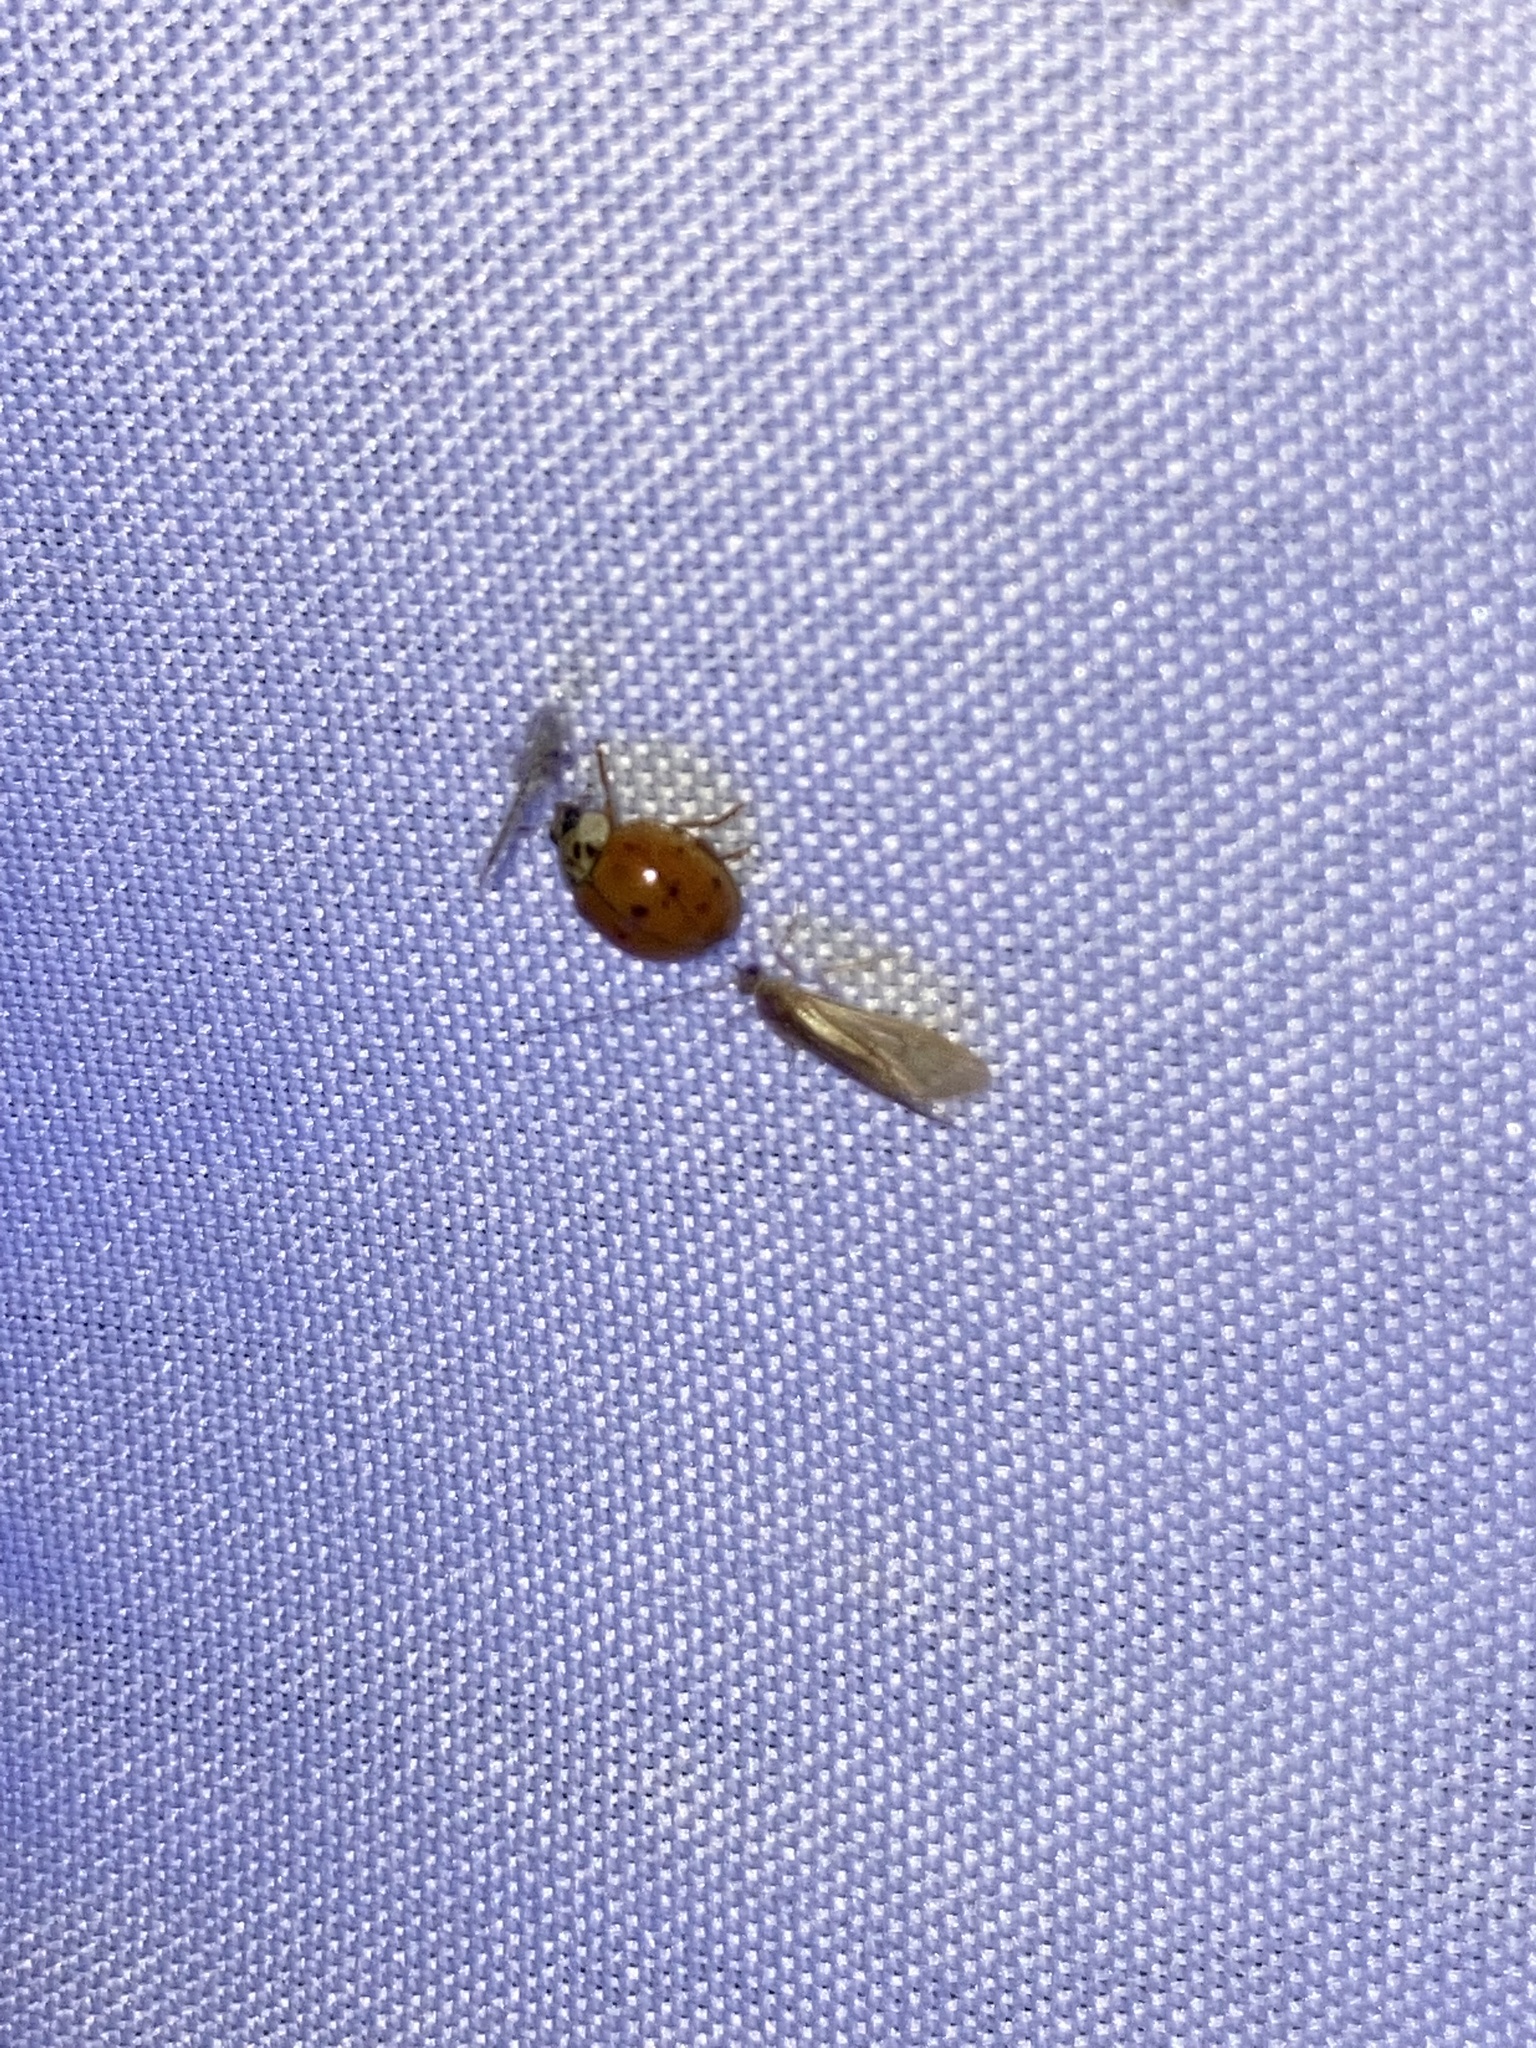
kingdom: Animalia
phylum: Arthropoda
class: Insecta
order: Coleoptera
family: Coccinellidae
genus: Harmonia
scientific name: Harmonia axyridis
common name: Harlequin ladybird
